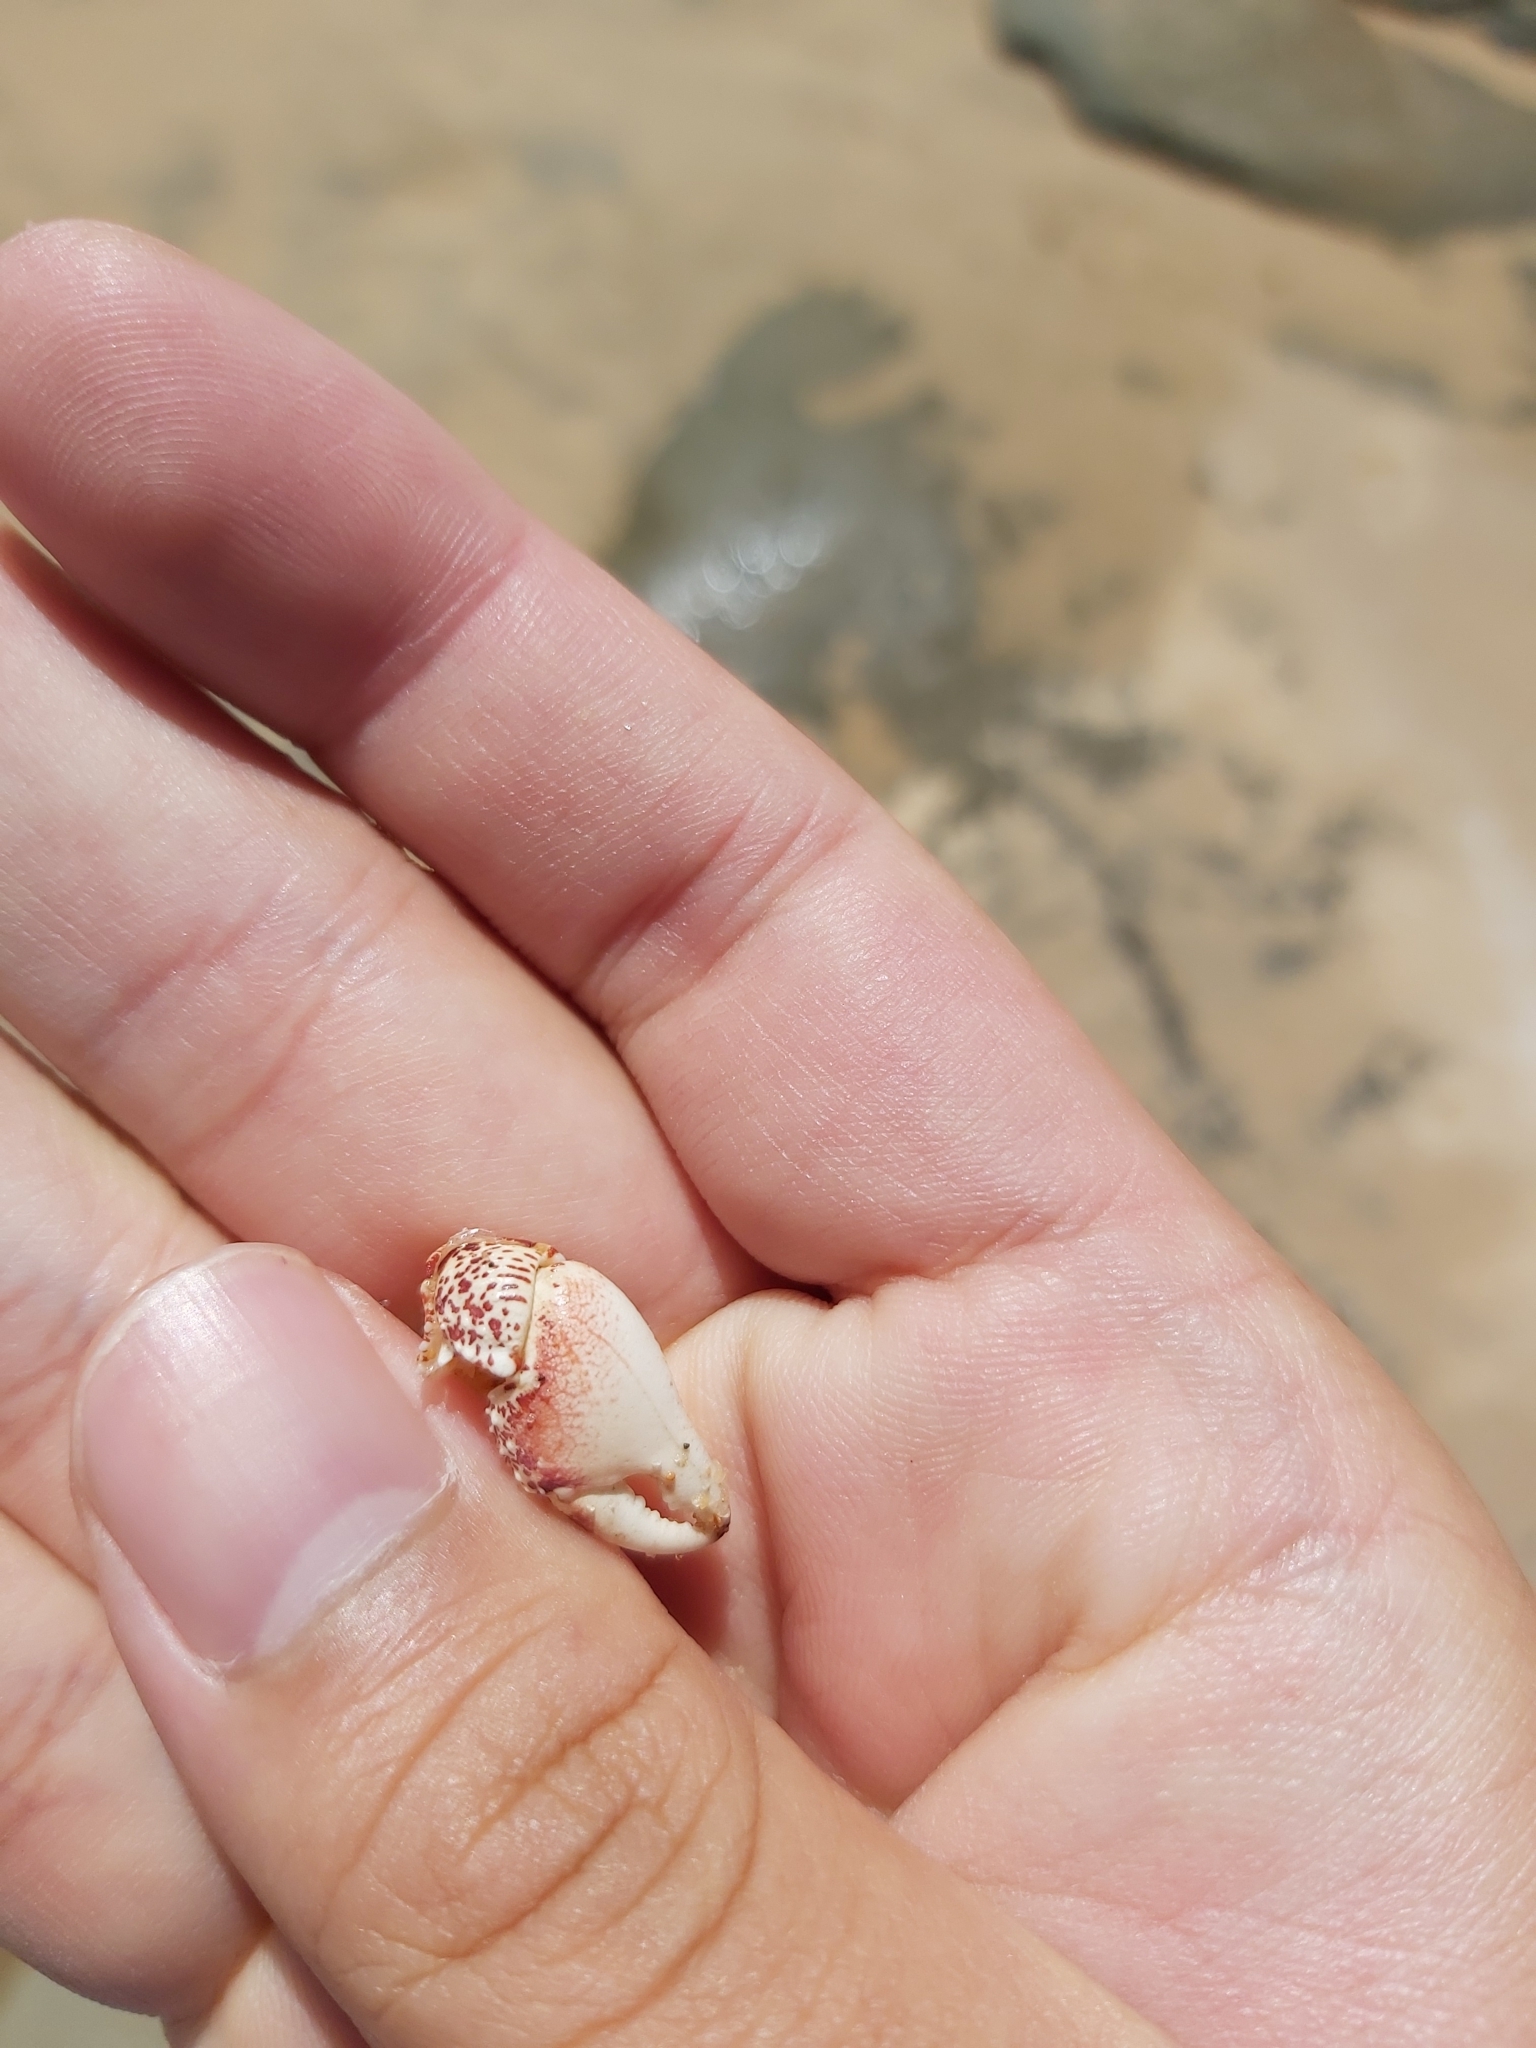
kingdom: Animalia
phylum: Arthropoda
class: Malacostraca
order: Decapoda
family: Grapsidae
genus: Leptograpsus
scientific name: Leptograpsus variegatus
